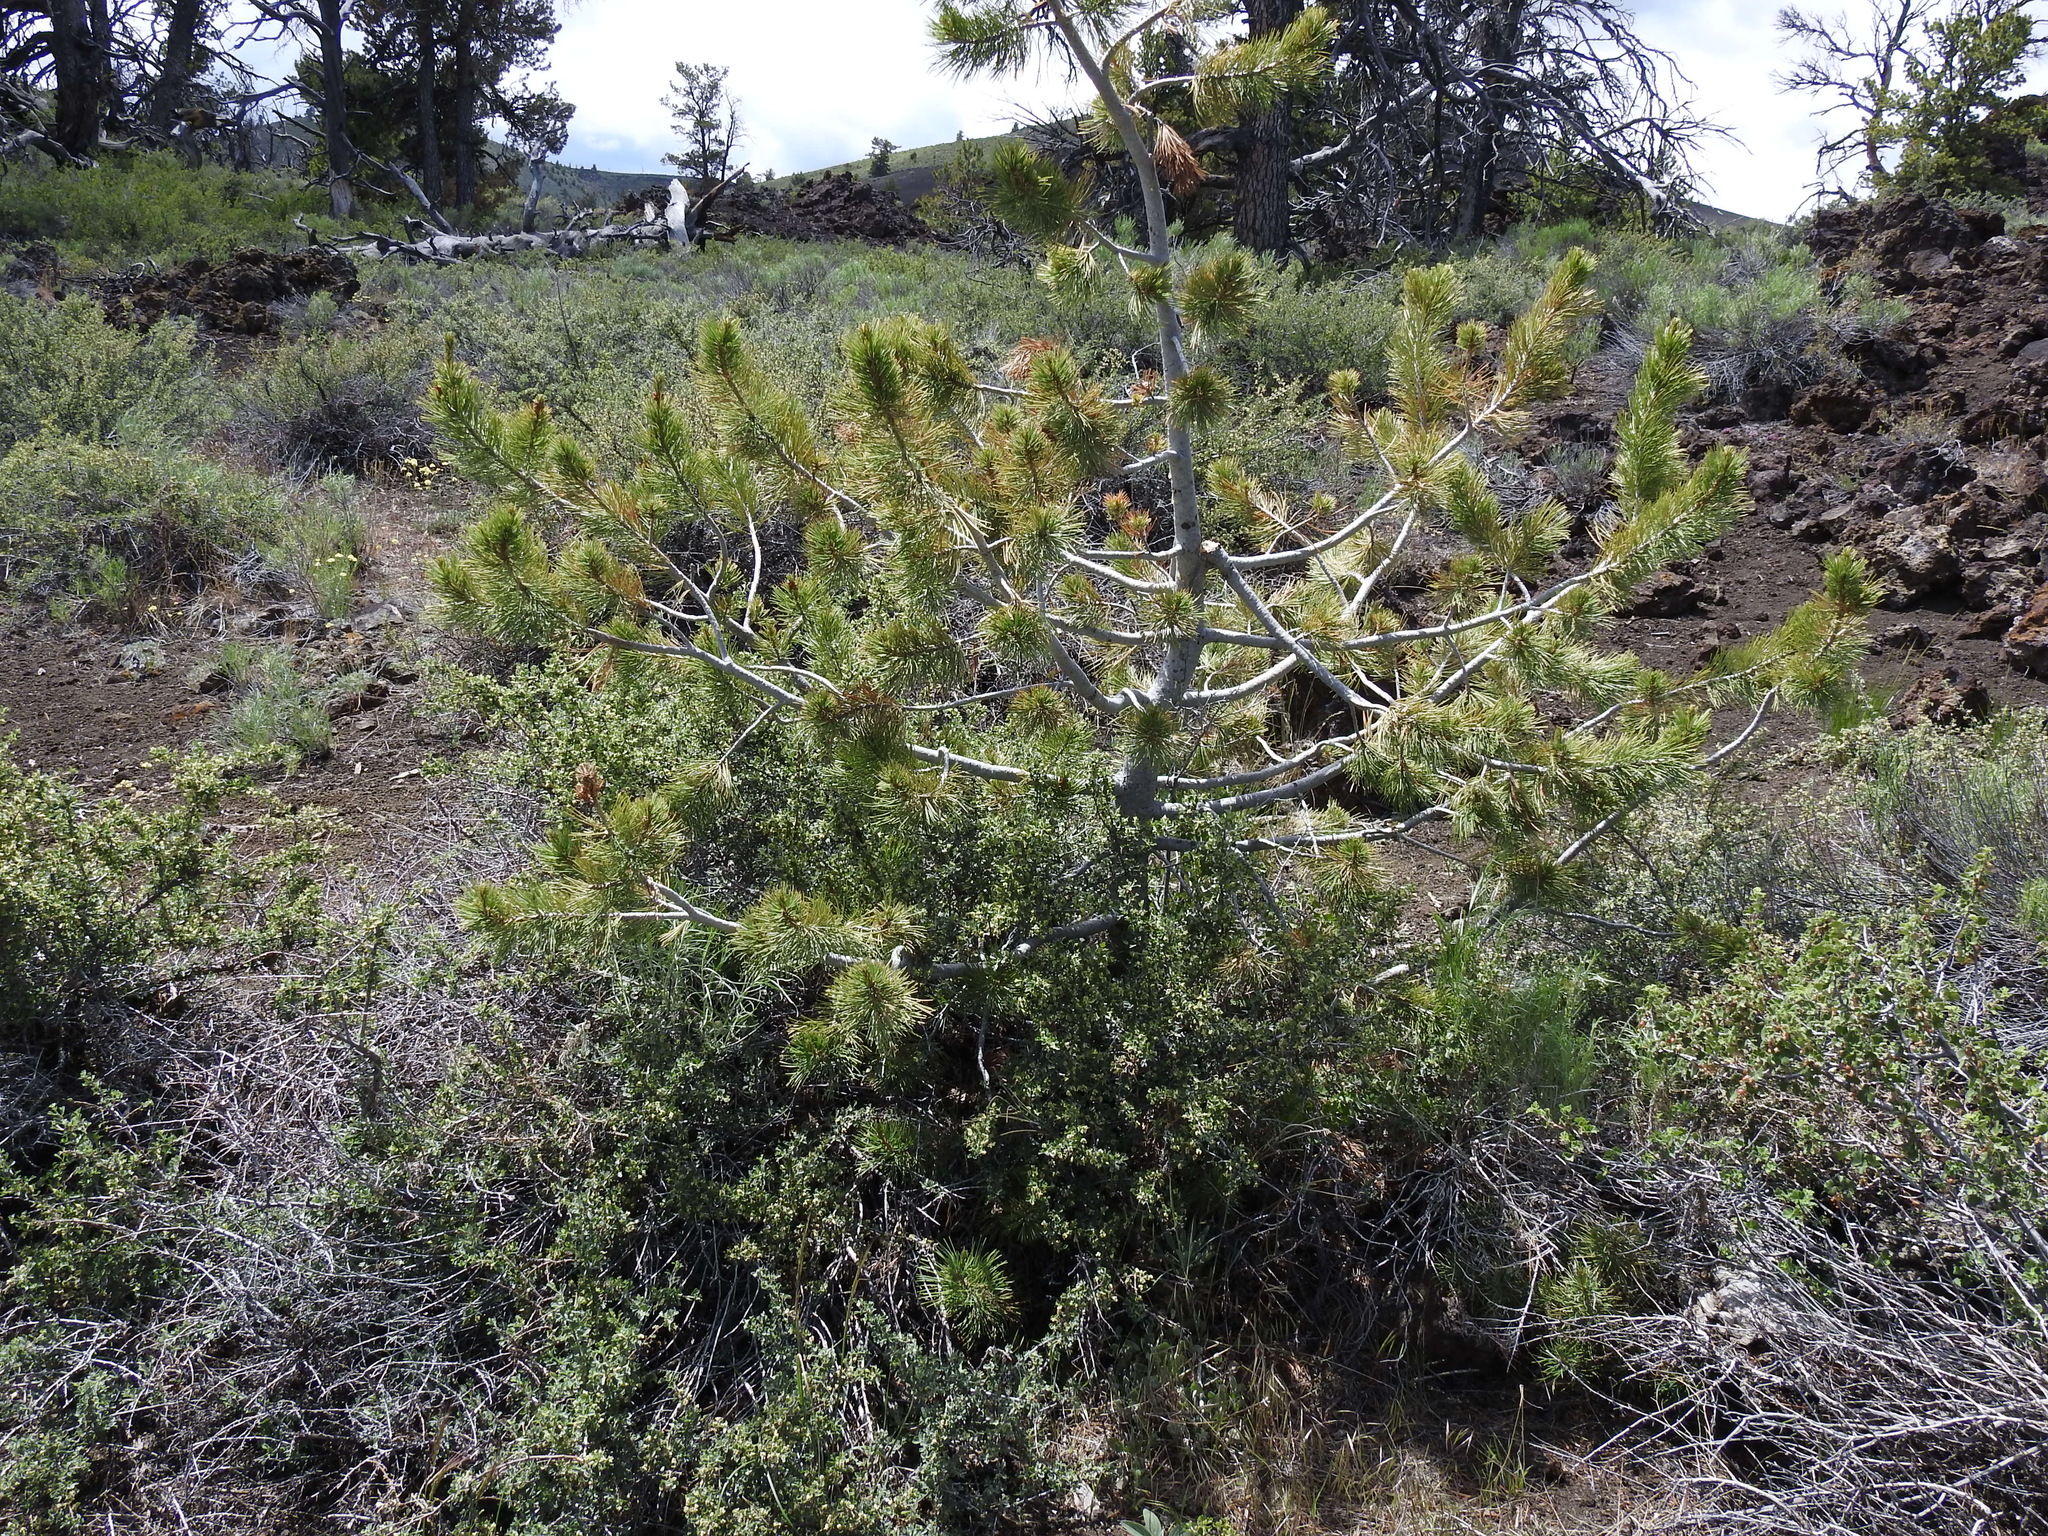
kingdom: Plantae
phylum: Tracheophyta
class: Pinopsida
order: Pinales
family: Pinaceae
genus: Pinus
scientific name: Pinus flexilis
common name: Limber pine
